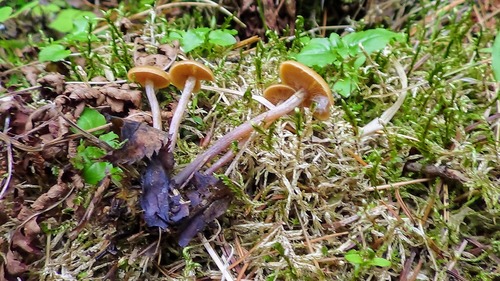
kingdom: Fungi
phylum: Basidiomycota
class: Agaricomycetes
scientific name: Agaricomycetes
